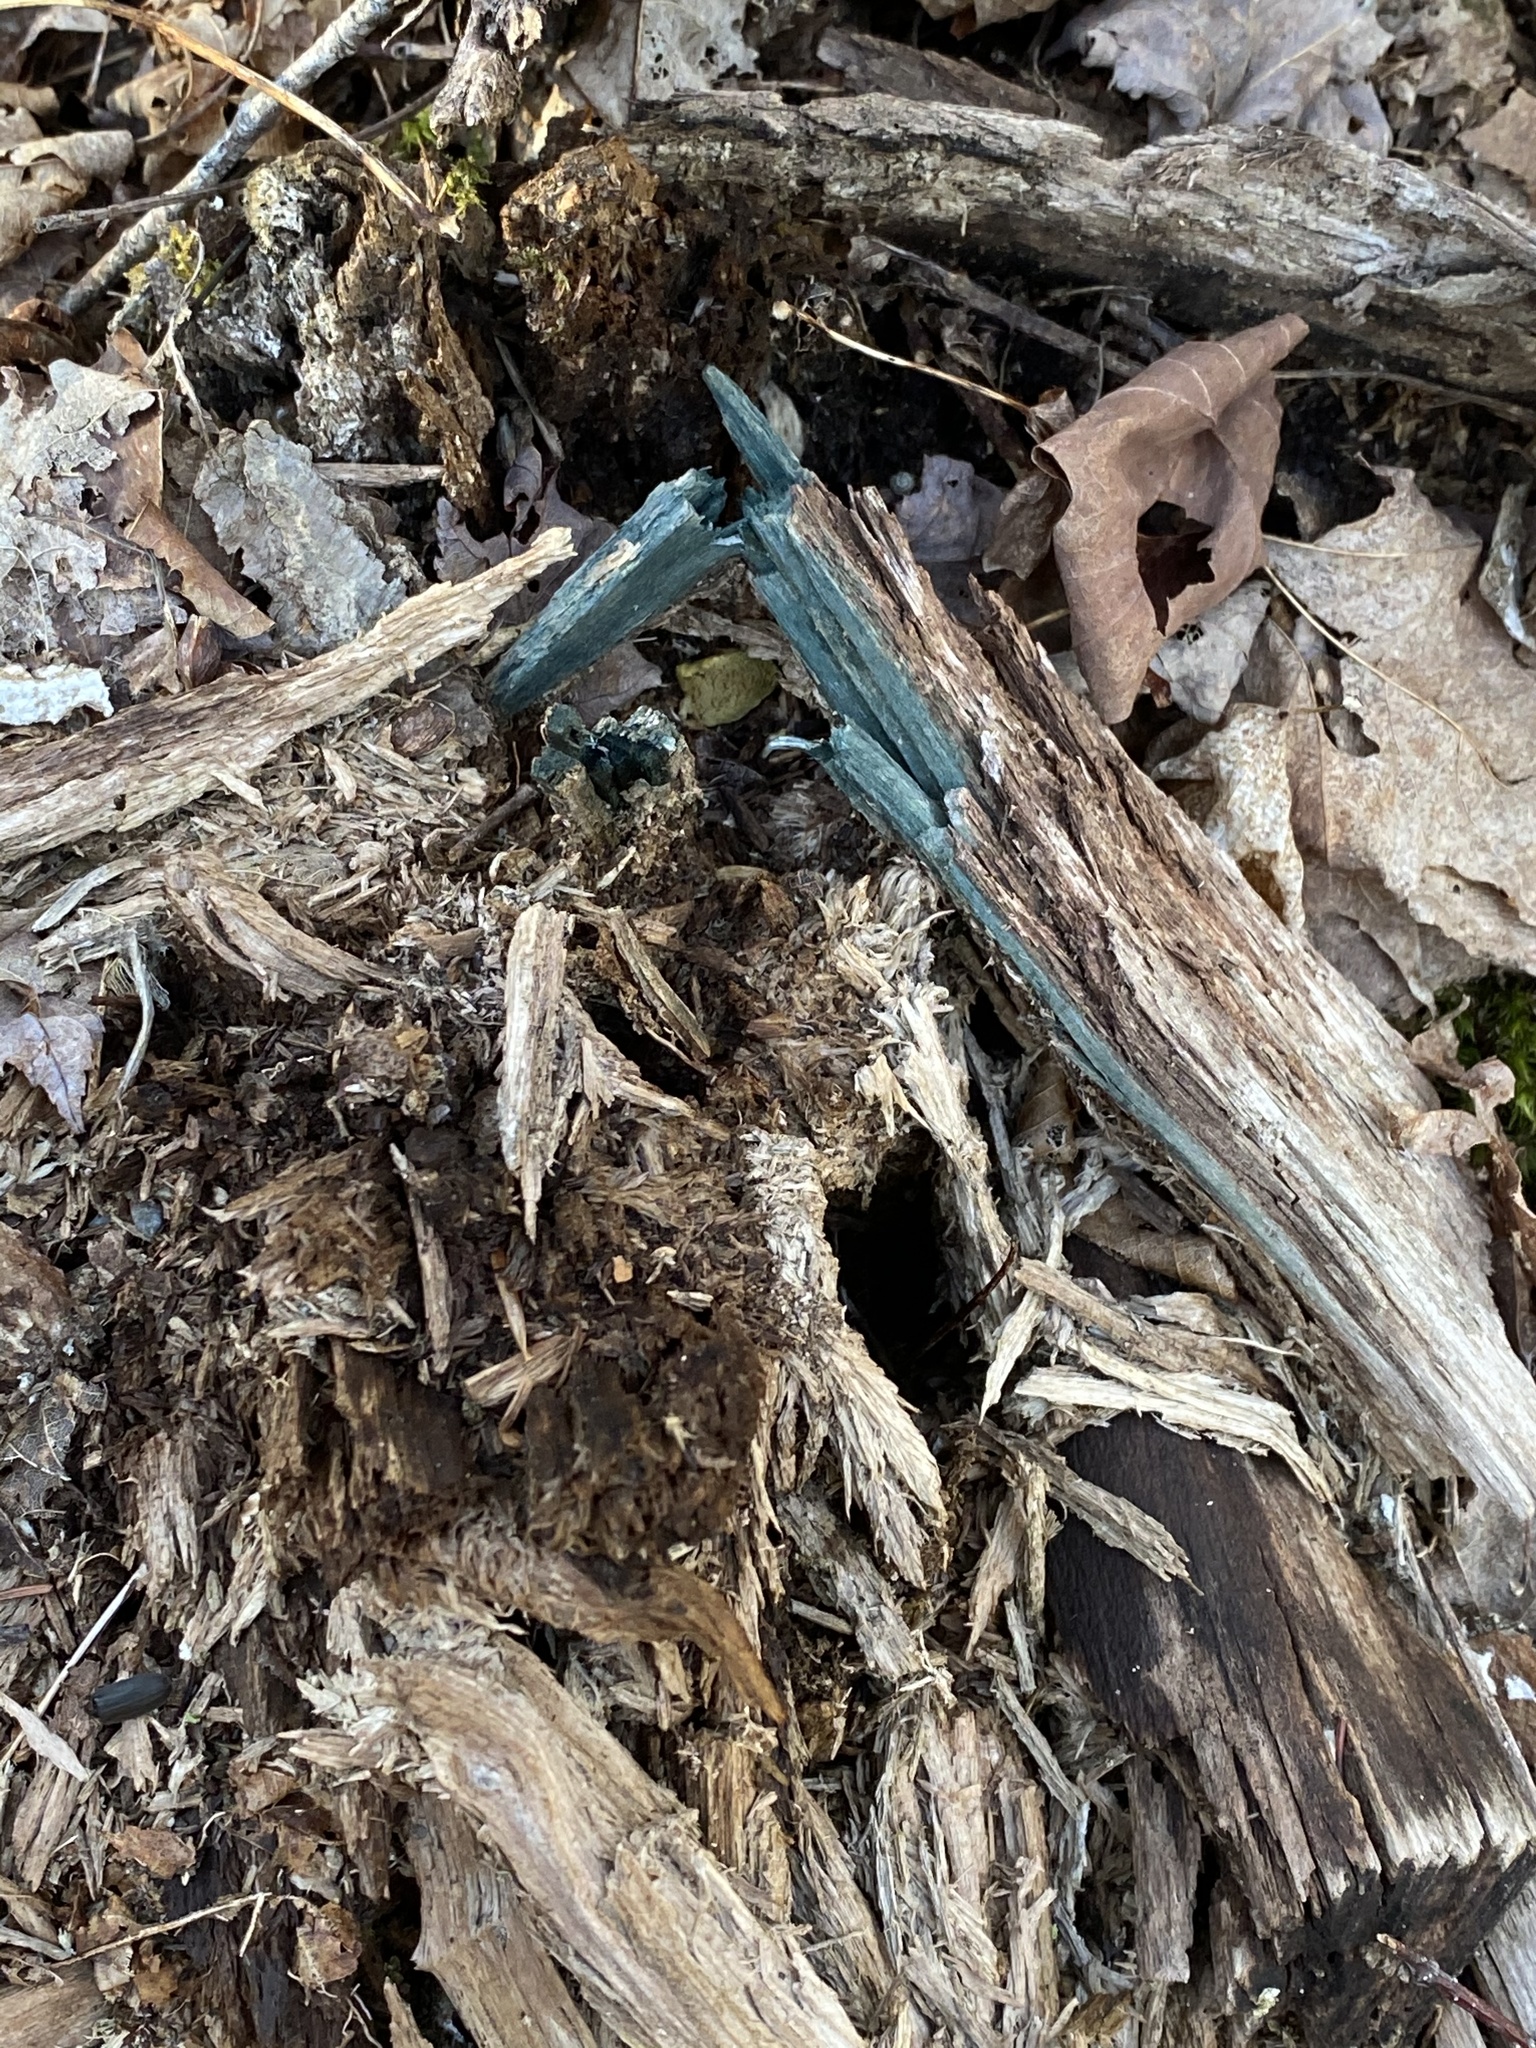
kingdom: Fungi
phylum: Ascomycota
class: Leotiomycetes
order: Helotiales
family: Chlorociboriaceae
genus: Chlorociboria
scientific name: Chlorociboria
